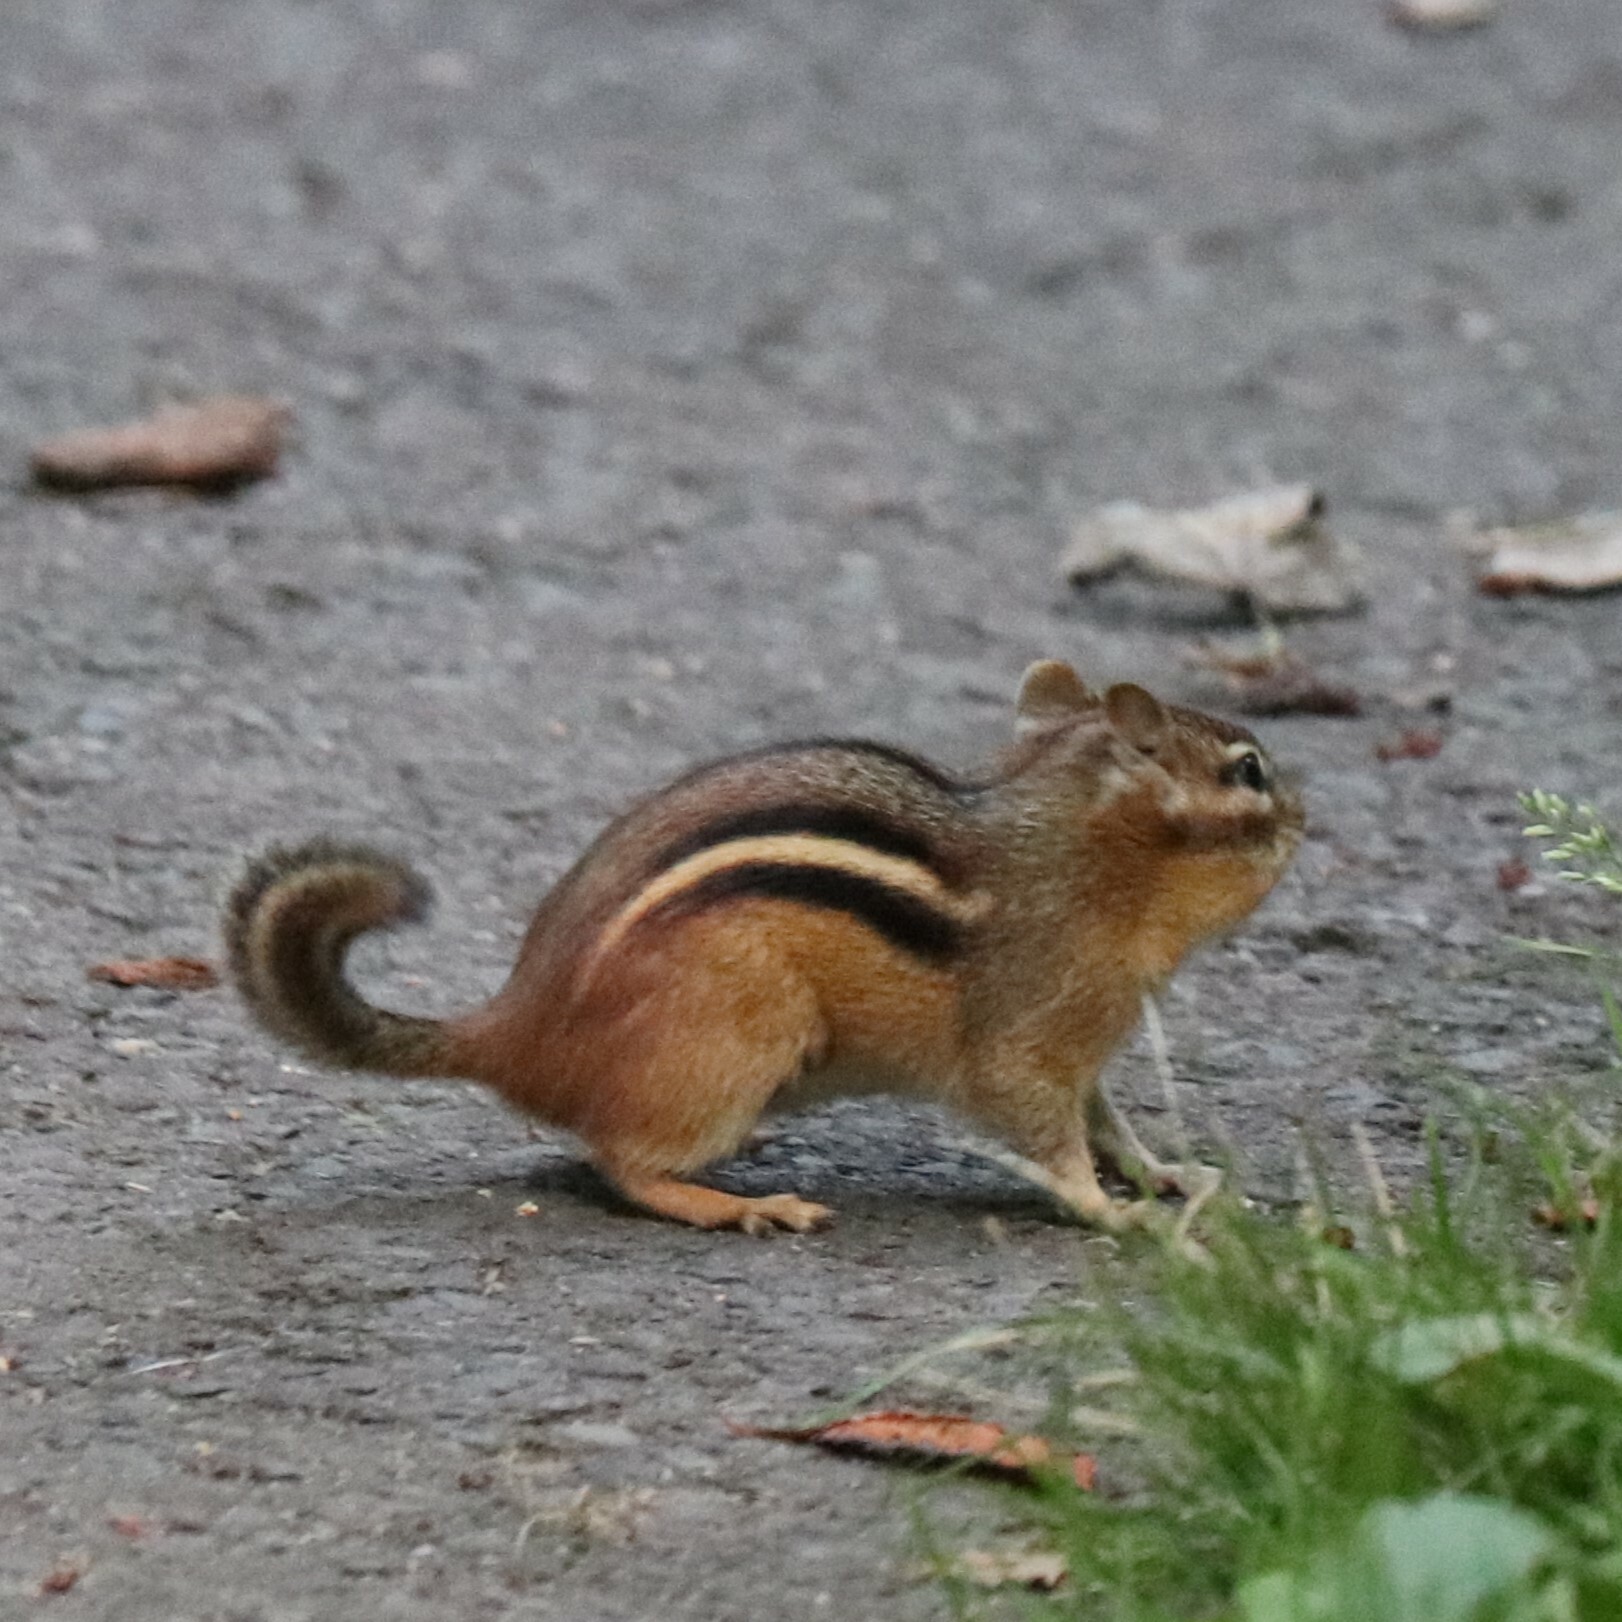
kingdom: Animalia
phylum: Chordata
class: Mammalia
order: Rodentia
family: Sciuridae
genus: Tamias
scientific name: Tamias striatus
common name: Eastern chipmunk
